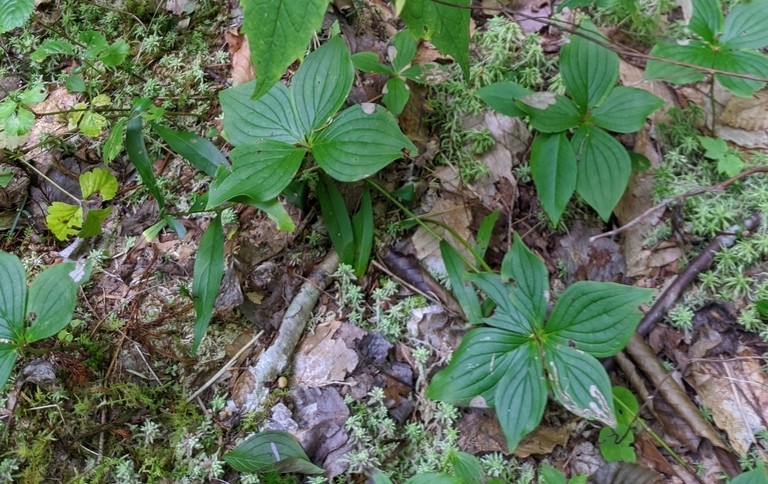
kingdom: Plantae
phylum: Tracheophyta
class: Magnoliopsida
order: Cornales
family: Cornaceae
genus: Cornus
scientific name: Cornus canadensis
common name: Creeping dogwood
